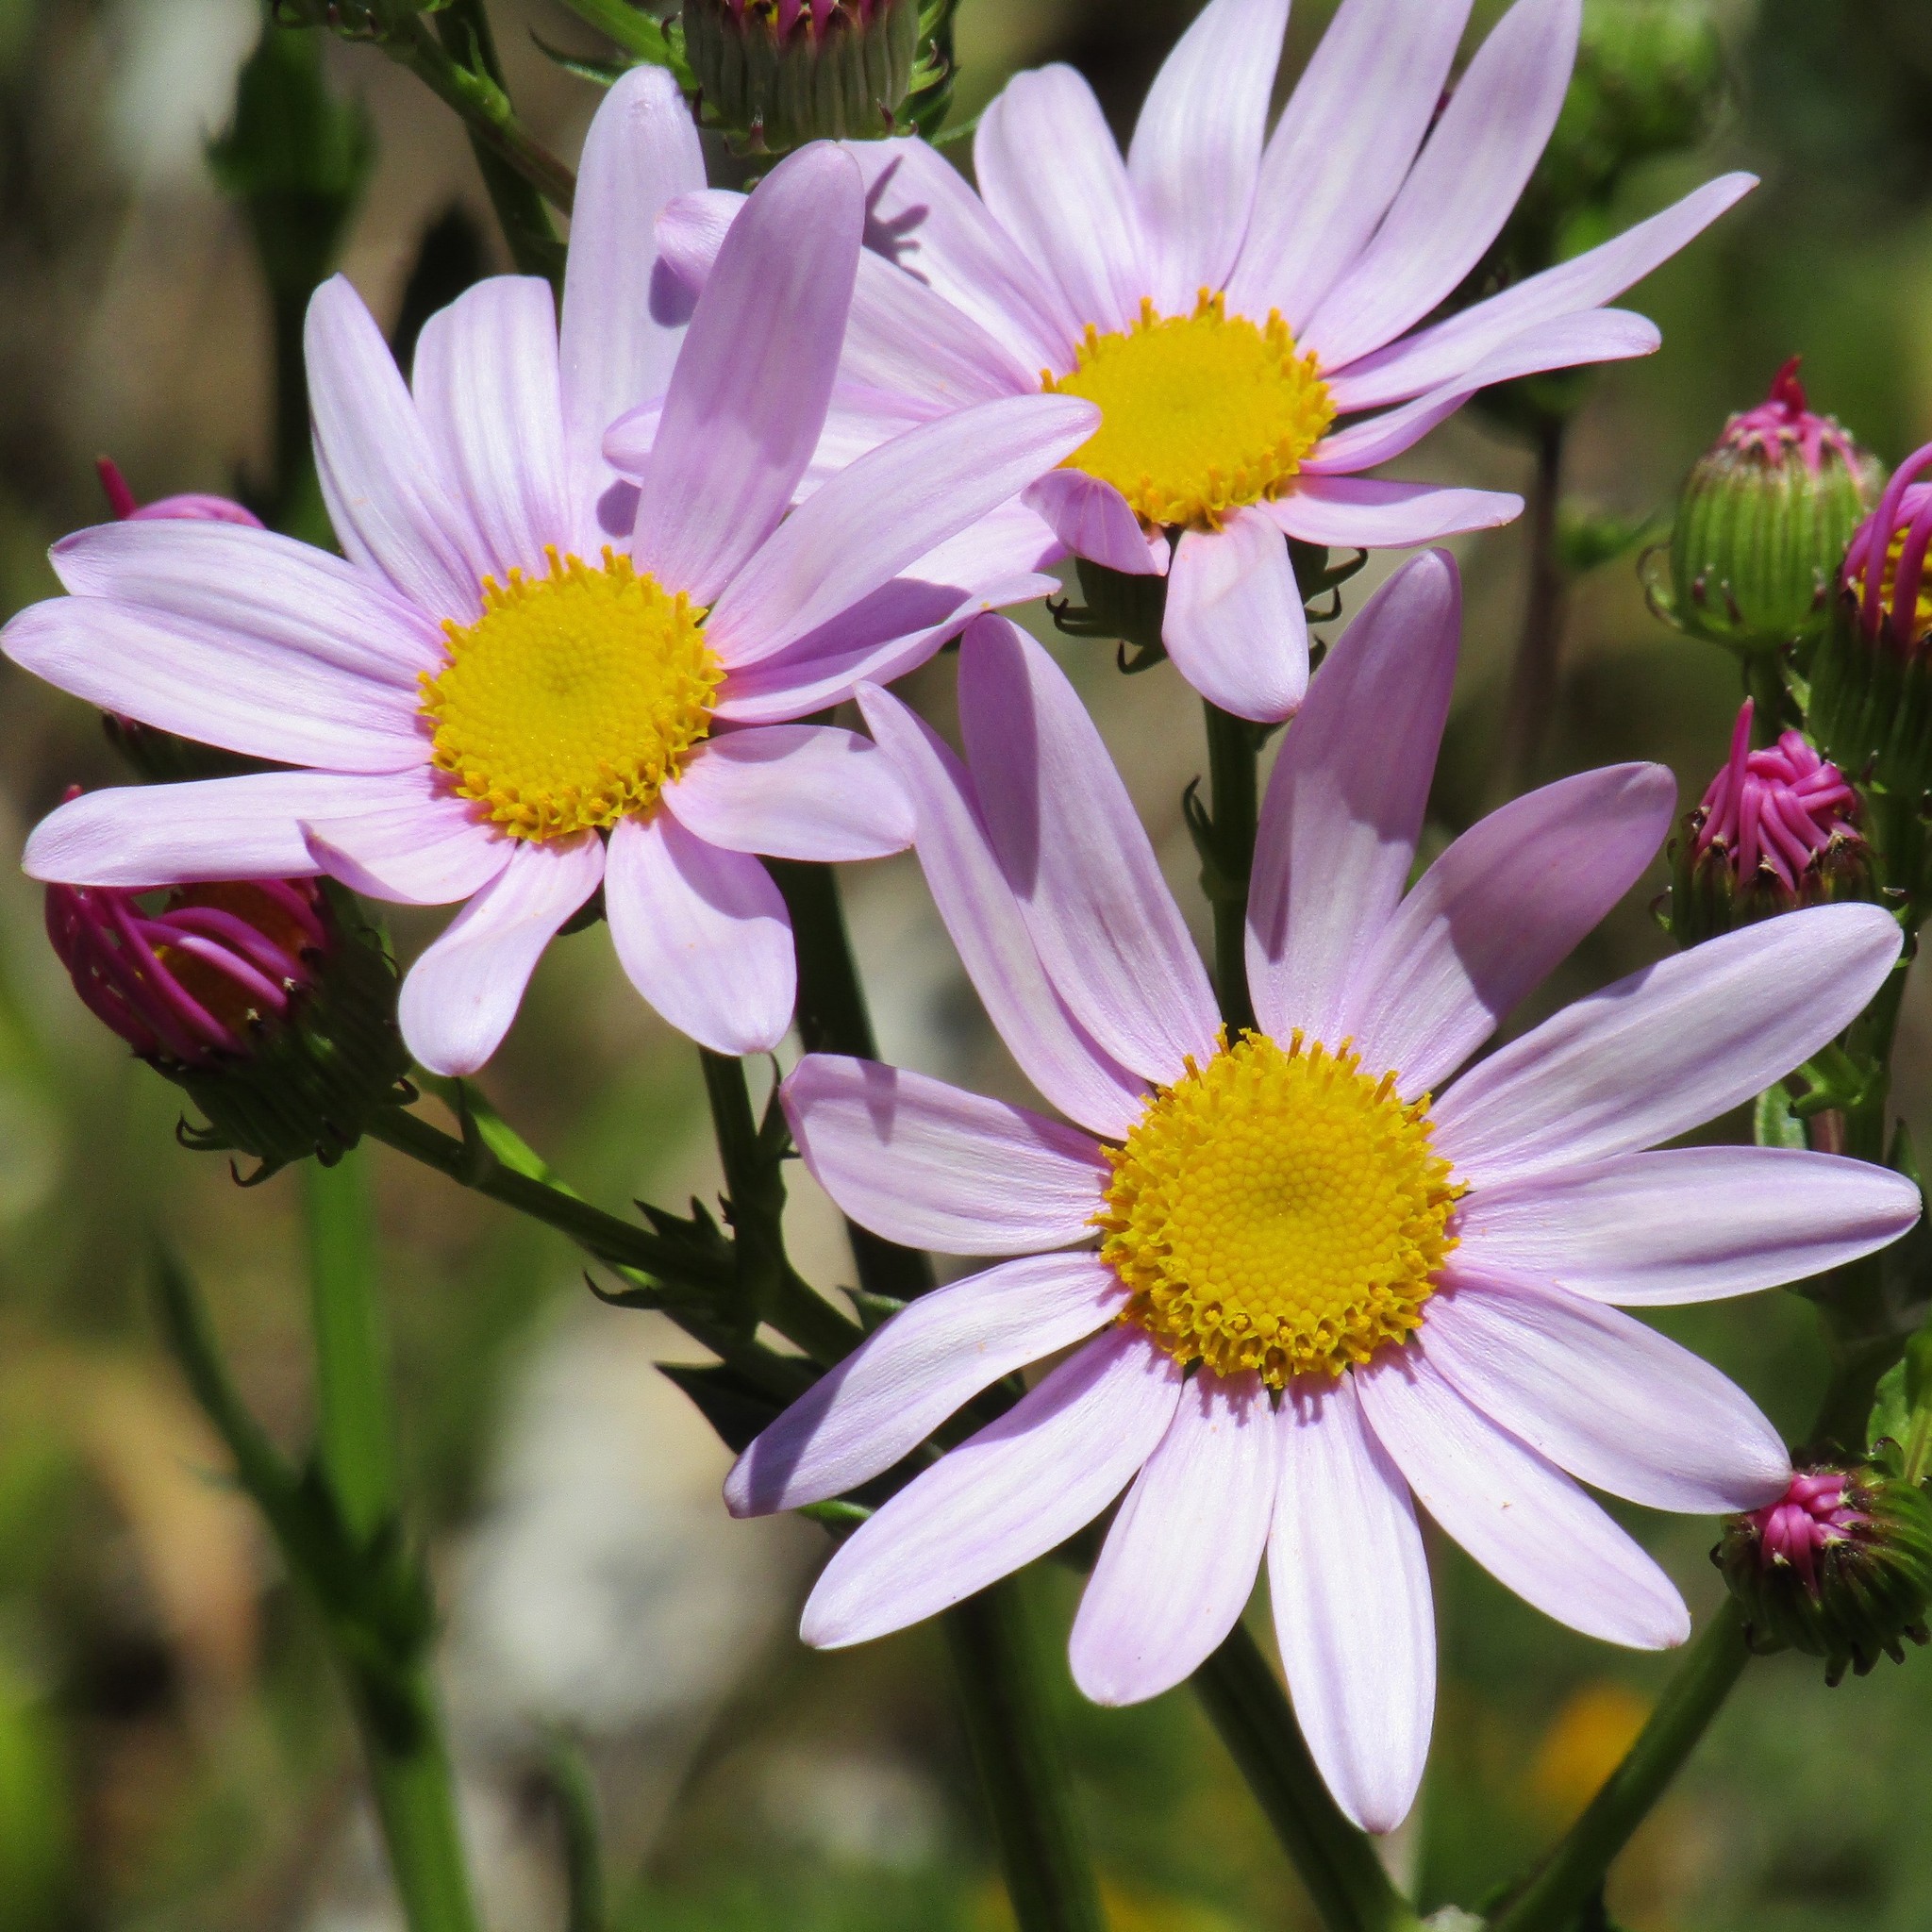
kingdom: Plantae
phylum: Tracheophyta
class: Magnoliopsida
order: Asterales
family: Asteraceae
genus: Senecio
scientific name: Senecio glastifolius
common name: Woad-leaved ragwort
